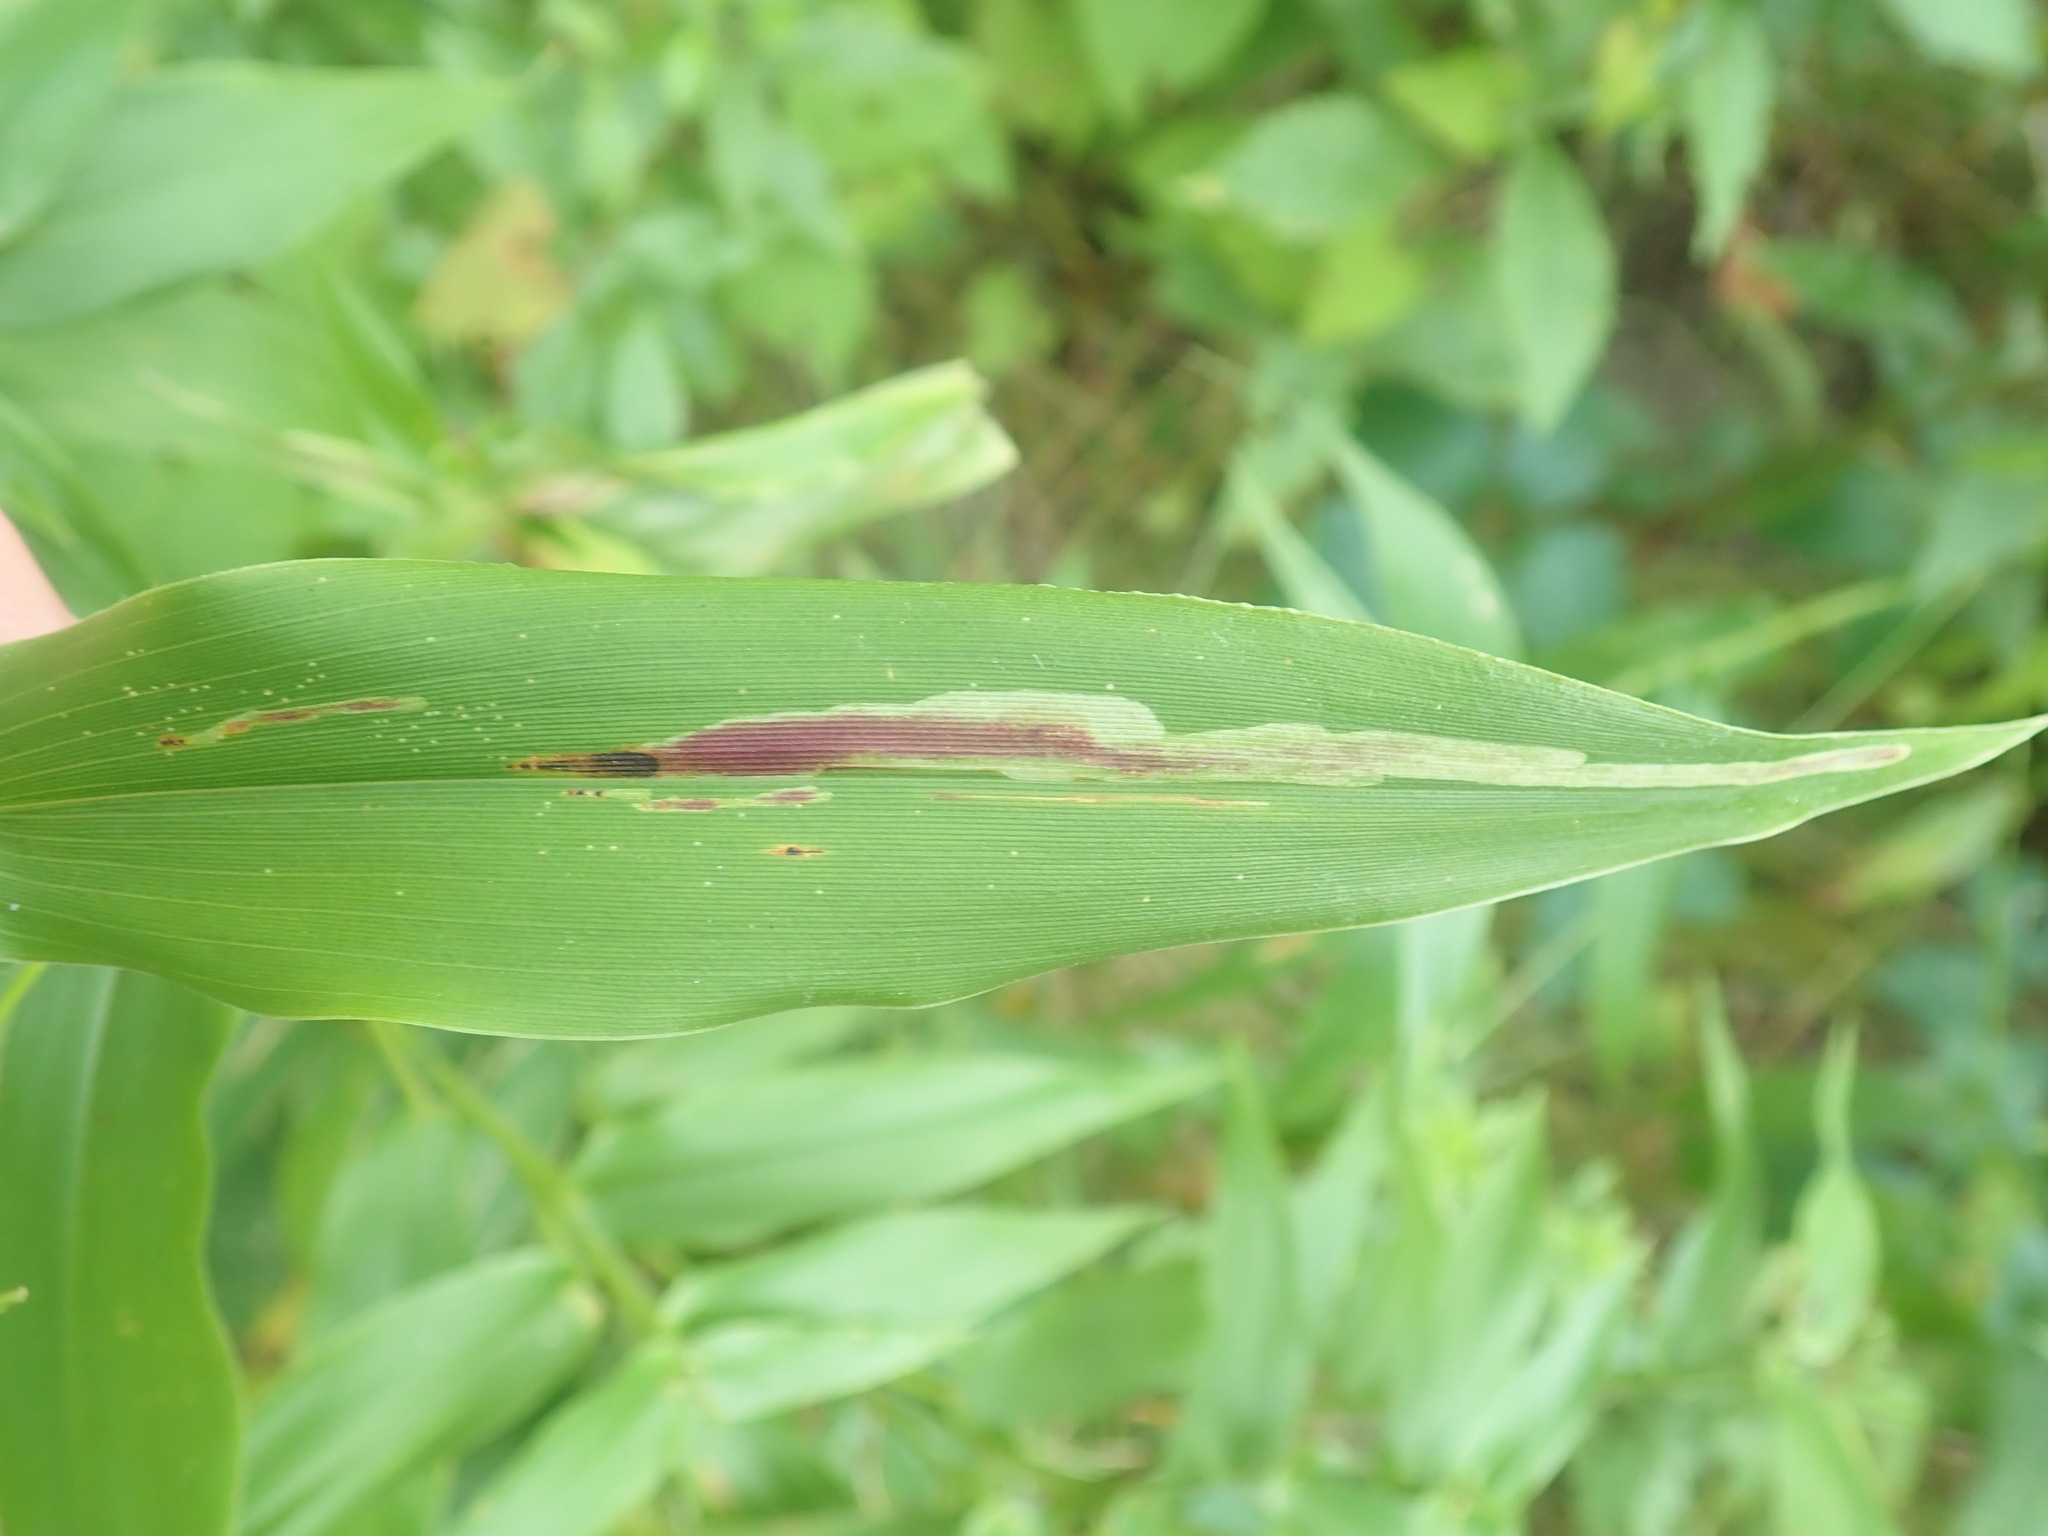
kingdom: Animalia
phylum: Arthropoda
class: Insecta
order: Diptera
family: Agromyzidae
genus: Cerodontha
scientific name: Cerodontha angulata
